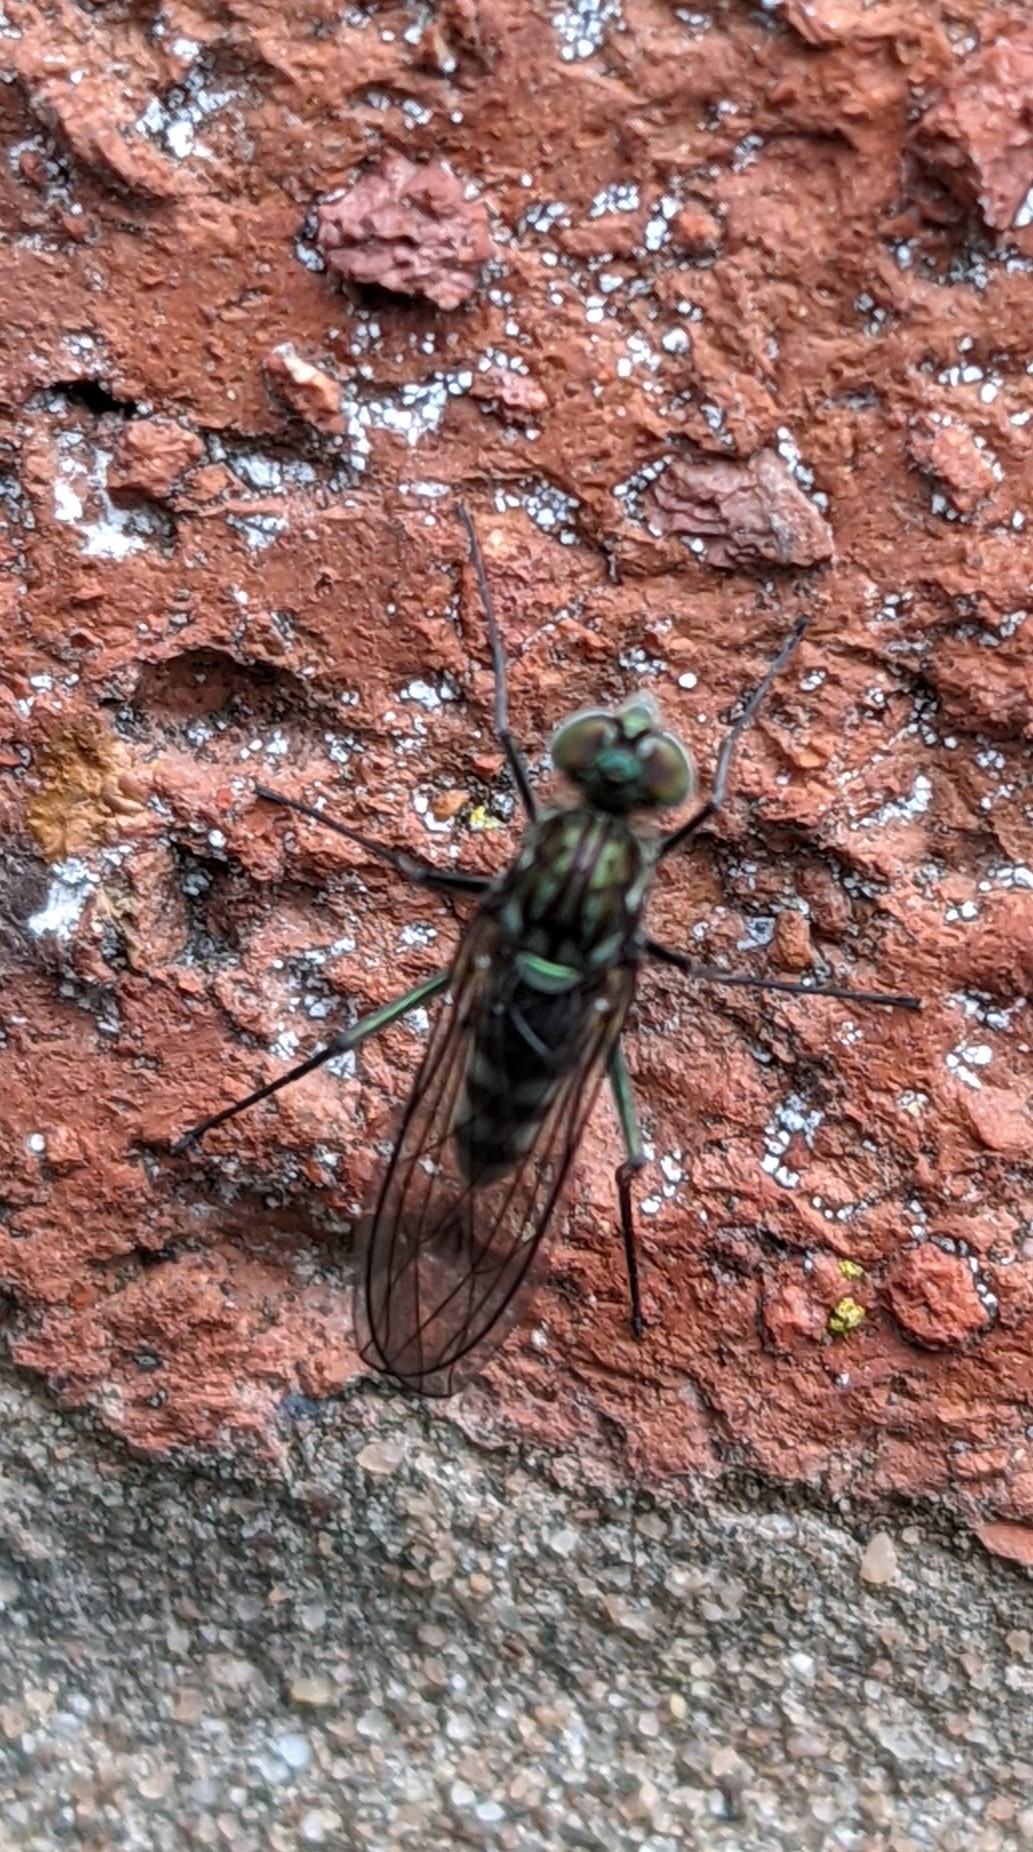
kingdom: Animalia
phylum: Arthropoda
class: Insecta
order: Diptera
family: Dolichopodidae
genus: Liancalus
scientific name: Liancalus virens
